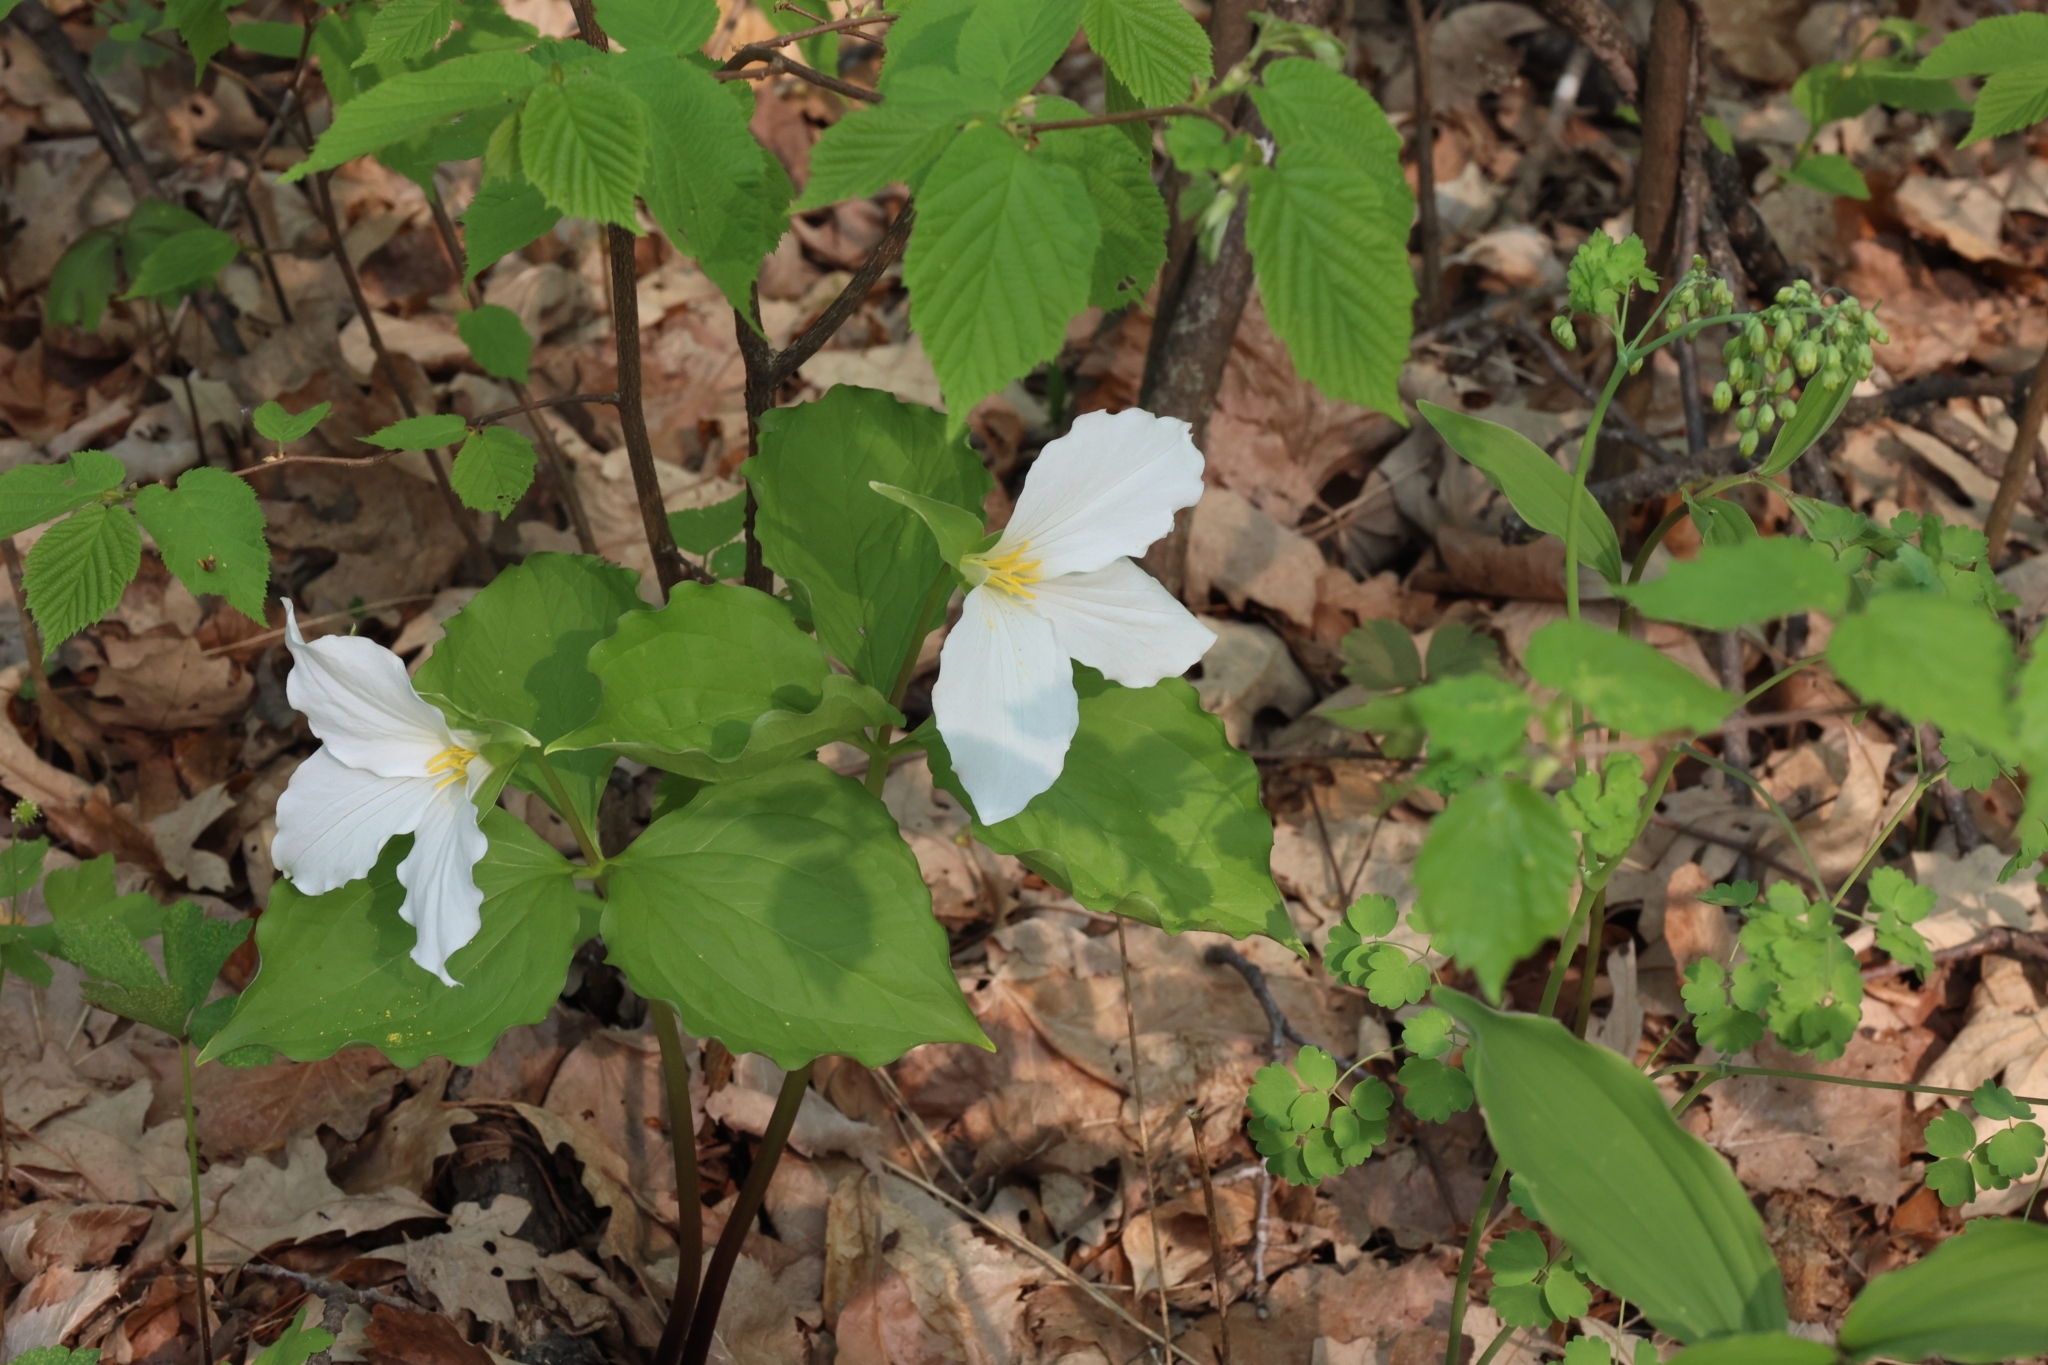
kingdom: Plantae
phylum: Tracheophyta
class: Liliopsida
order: Liliales
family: Melanthiaceae
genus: Trillium
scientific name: Trillium grandiflorum
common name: Great white trillium
